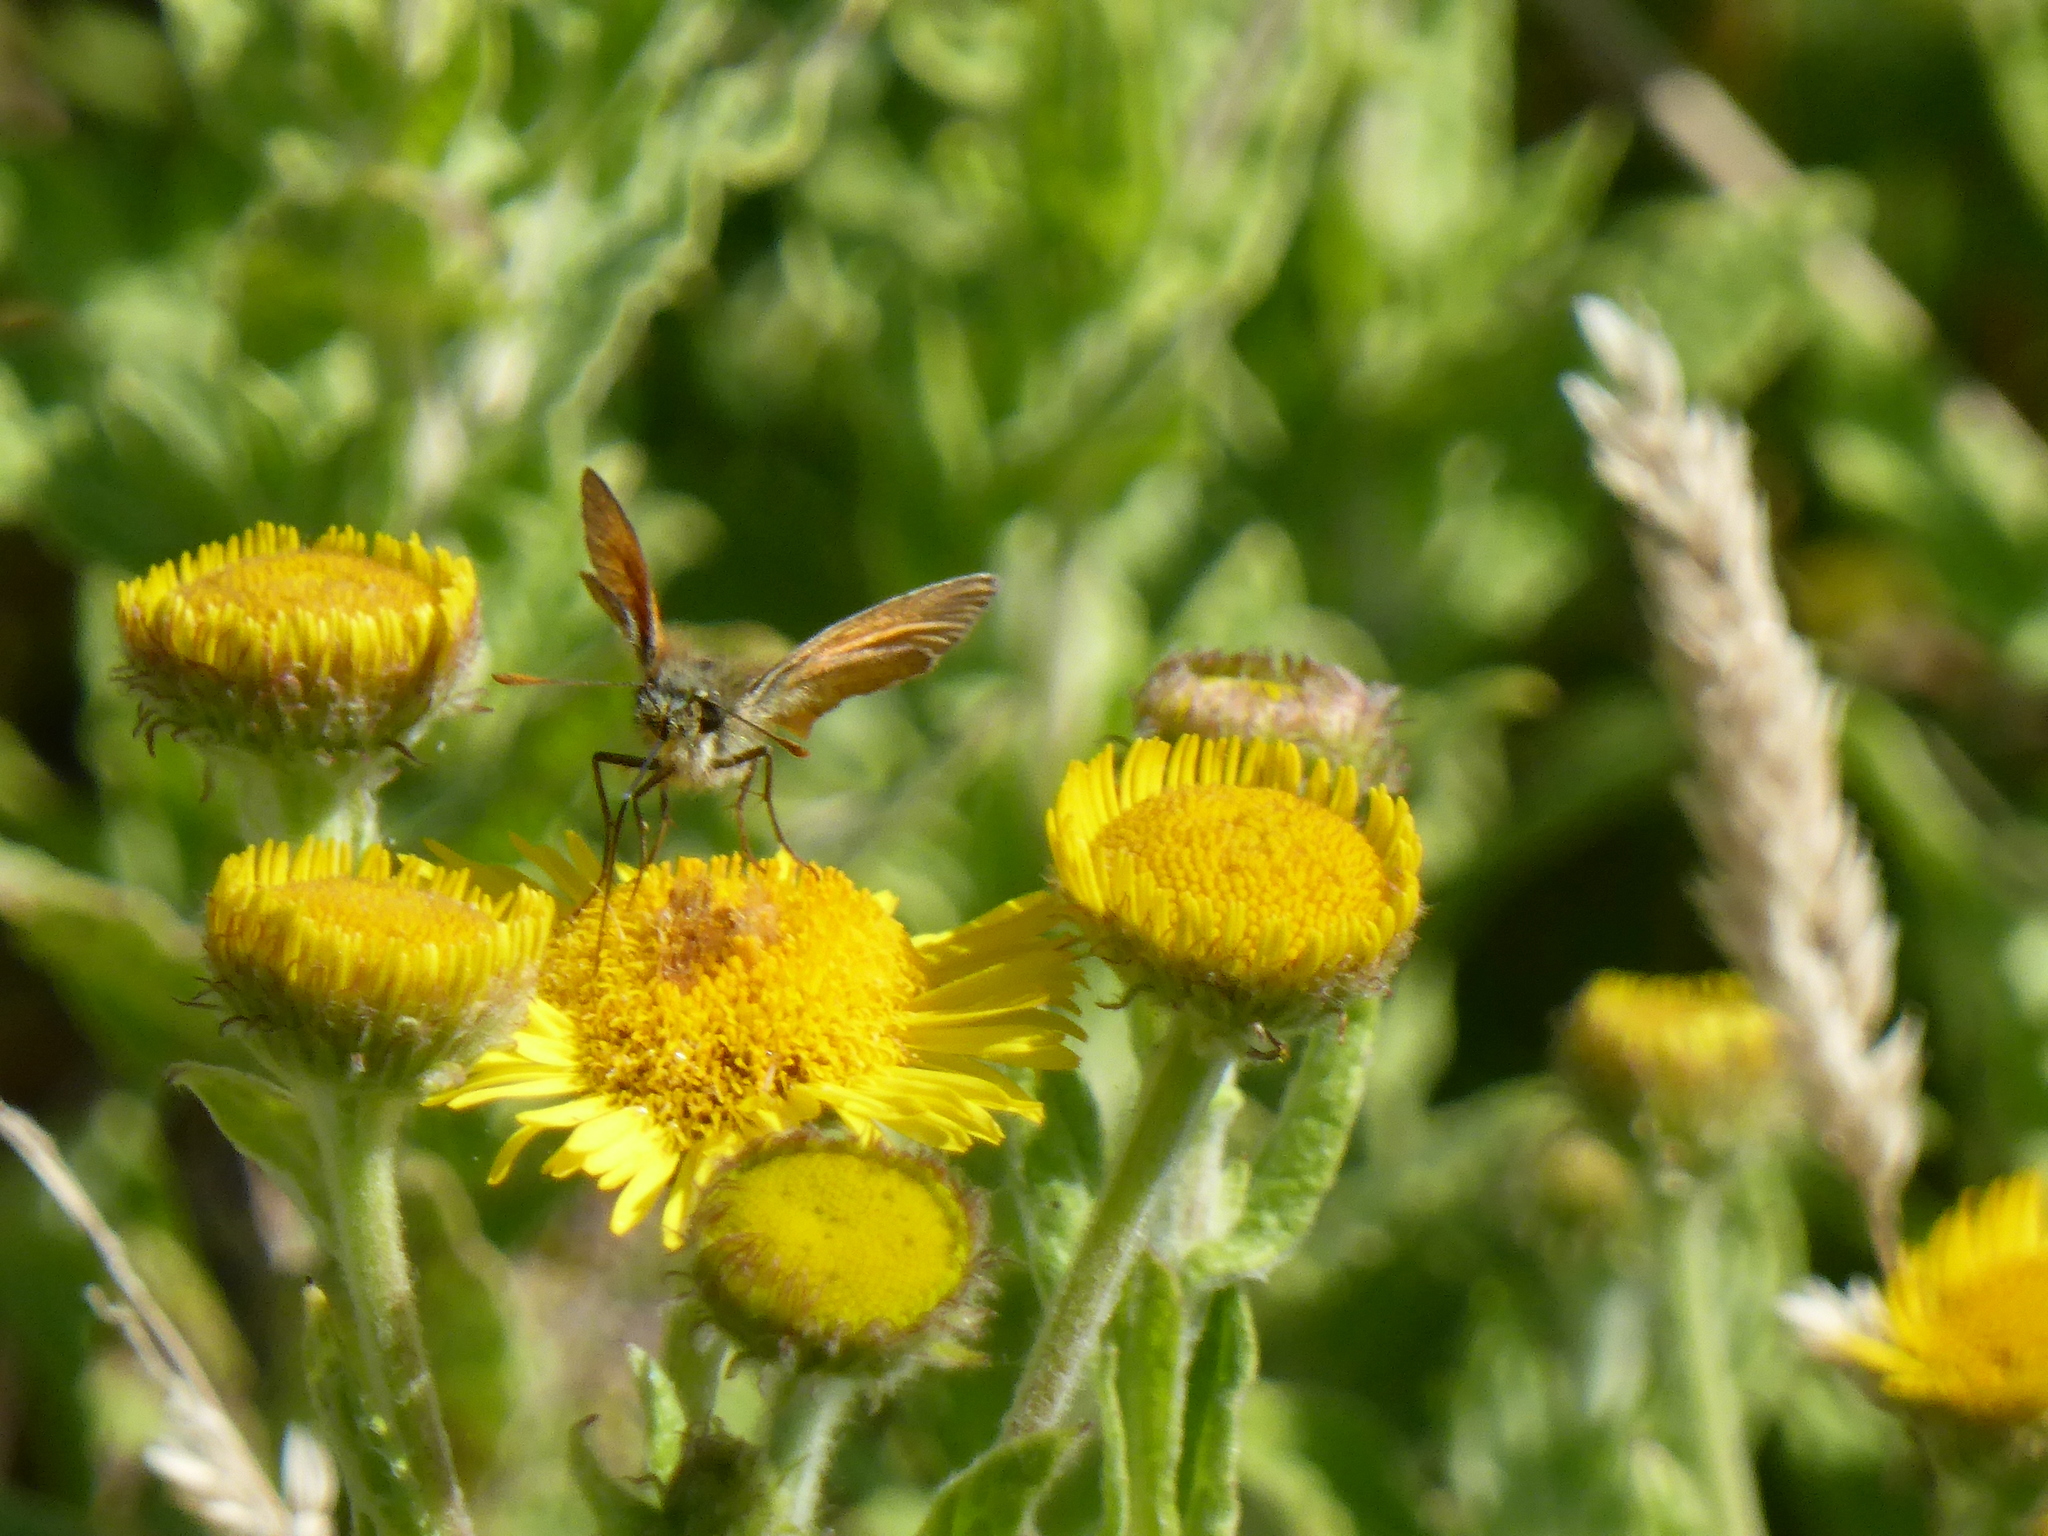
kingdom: Animalia
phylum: Arthropoda
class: Insecta
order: Lepidoptera
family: Hesperiidae
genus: Thymelicus
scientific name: Thymelicus sylvestris
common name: Small skipper
